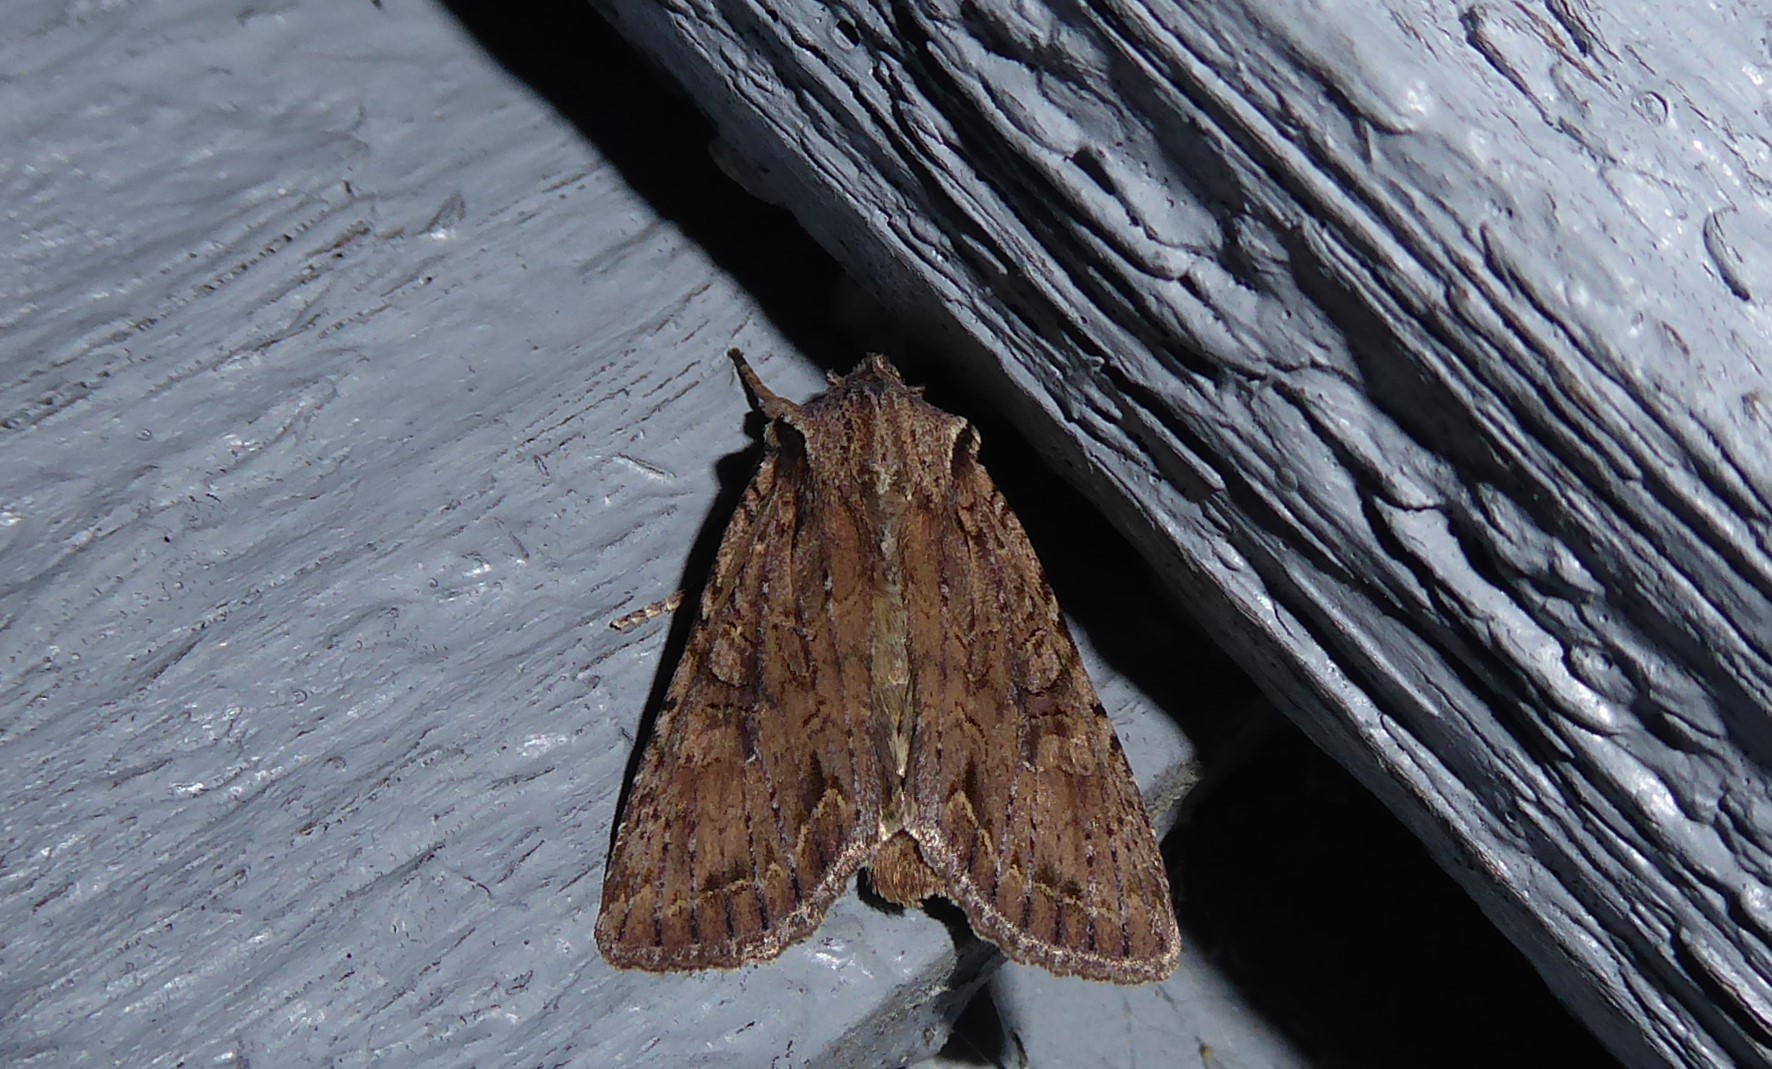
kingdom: Animalia
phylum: Arthropoda
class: Insecta
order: Lepidoptera
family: Noctuidae
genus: Ichneutica
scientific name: Ichneutica
